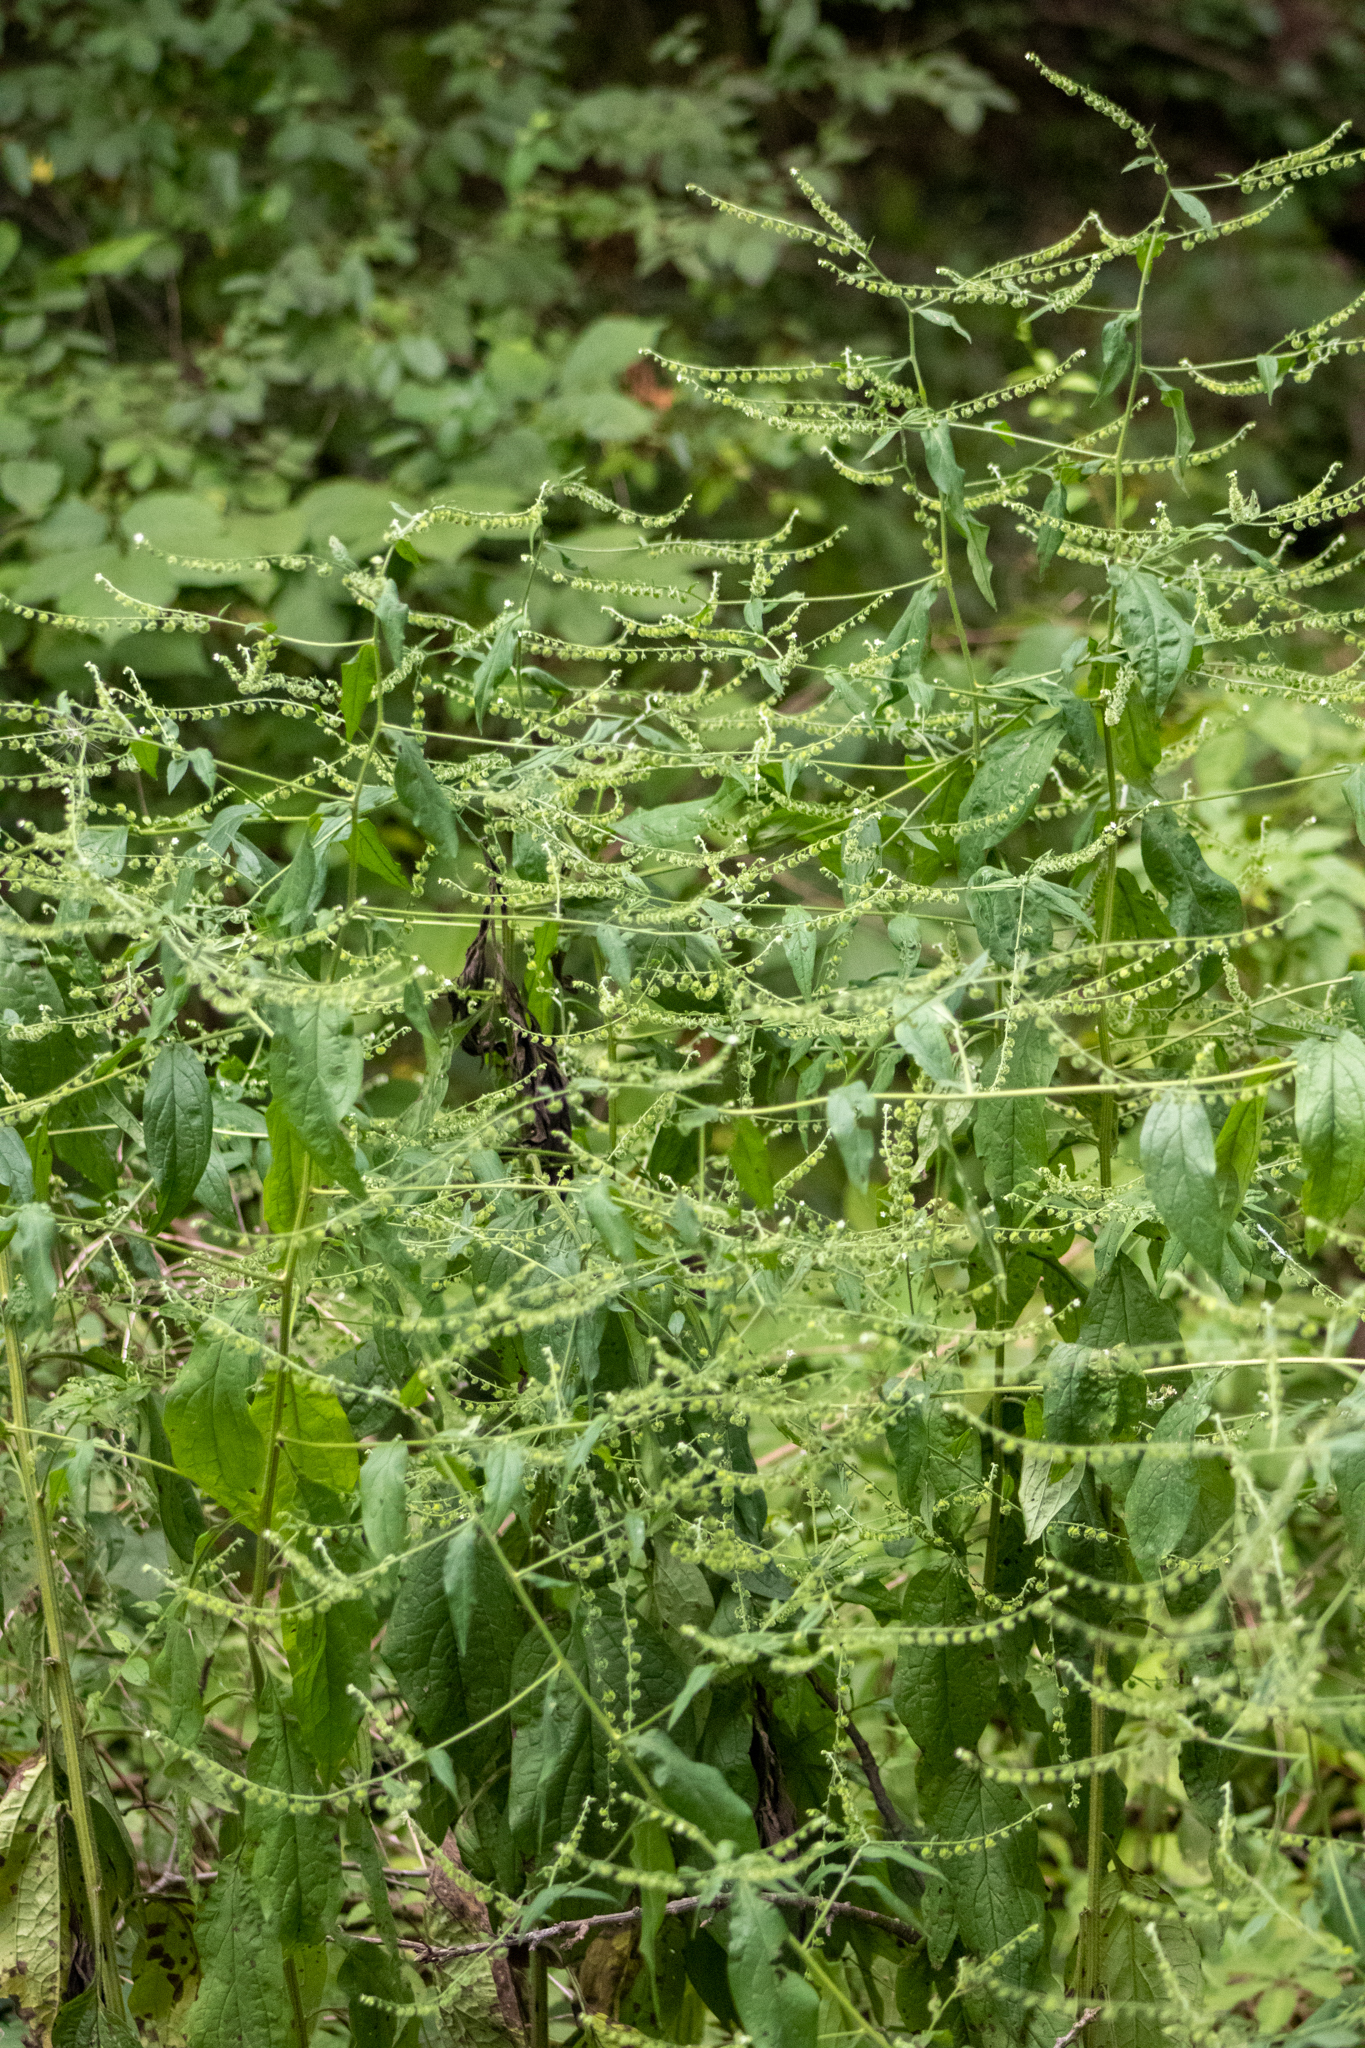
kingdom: Plantae
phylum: Tracheophyta
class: Magnoliopsida
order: Boraginales
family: Boraginaceae
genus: Hackelia
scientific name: Hackelia virginiana
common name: Beggar's-lice
